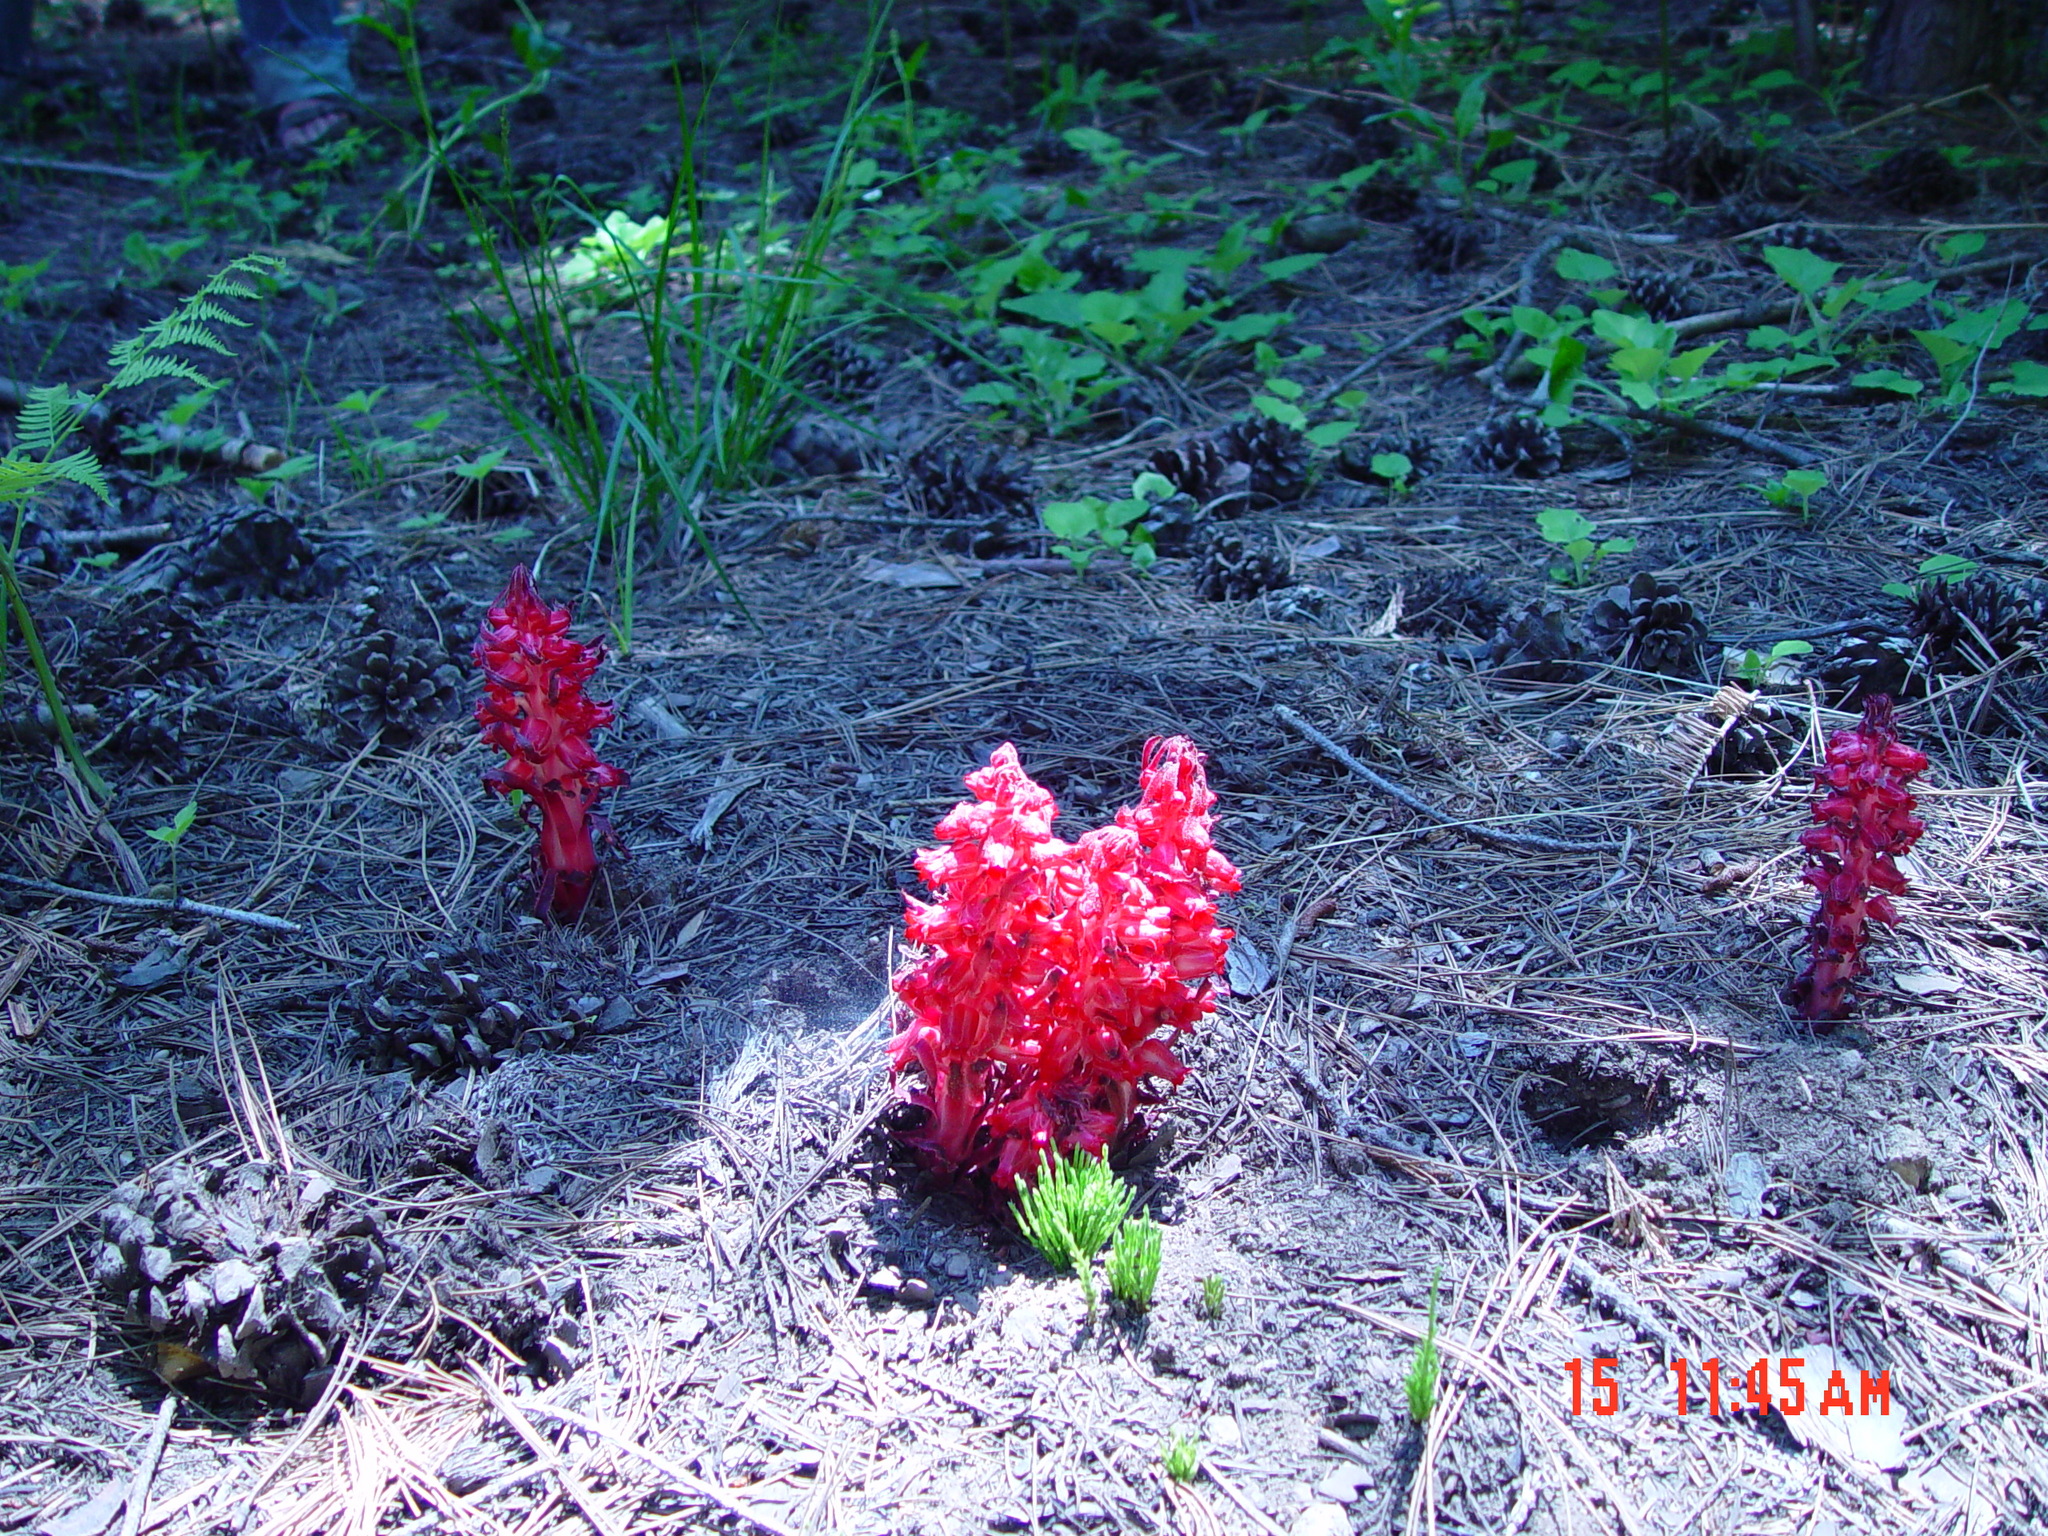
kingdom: Plantae
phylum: Tracheophyta
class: Magnoliopsida
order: Ericales
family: Ericaceae
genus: Sarcodes
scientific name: Sarcodes sanguinea
